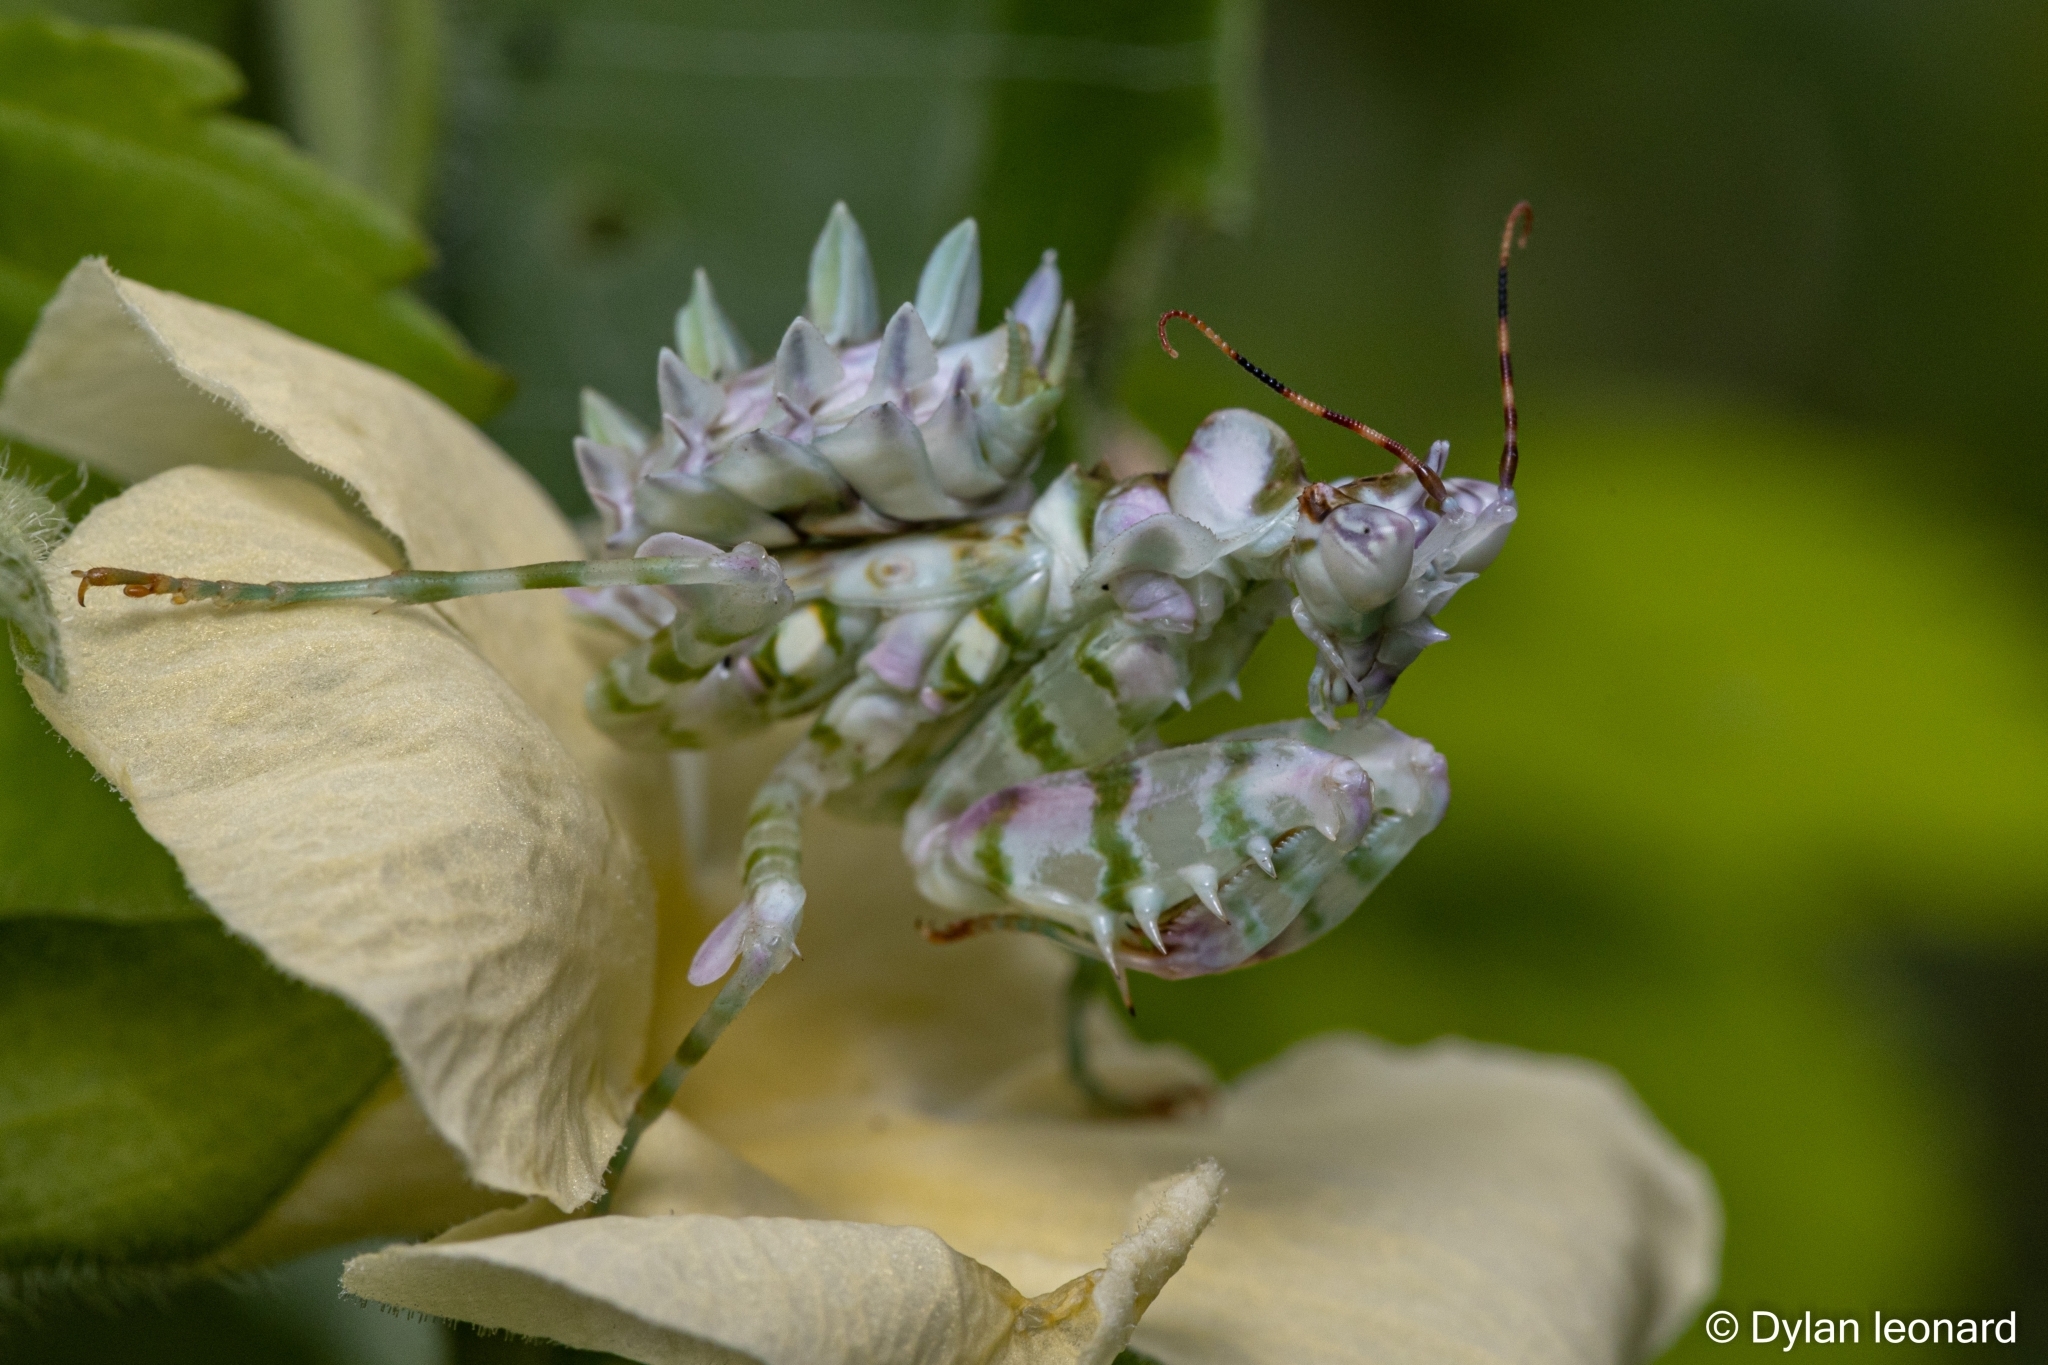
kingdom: Animalia
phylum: Arthropoda
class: Insecta
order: Mantodea
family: Hymenopodidae
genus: Pseudocreobotra
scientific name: Pseudocreobotra wahlbergi
